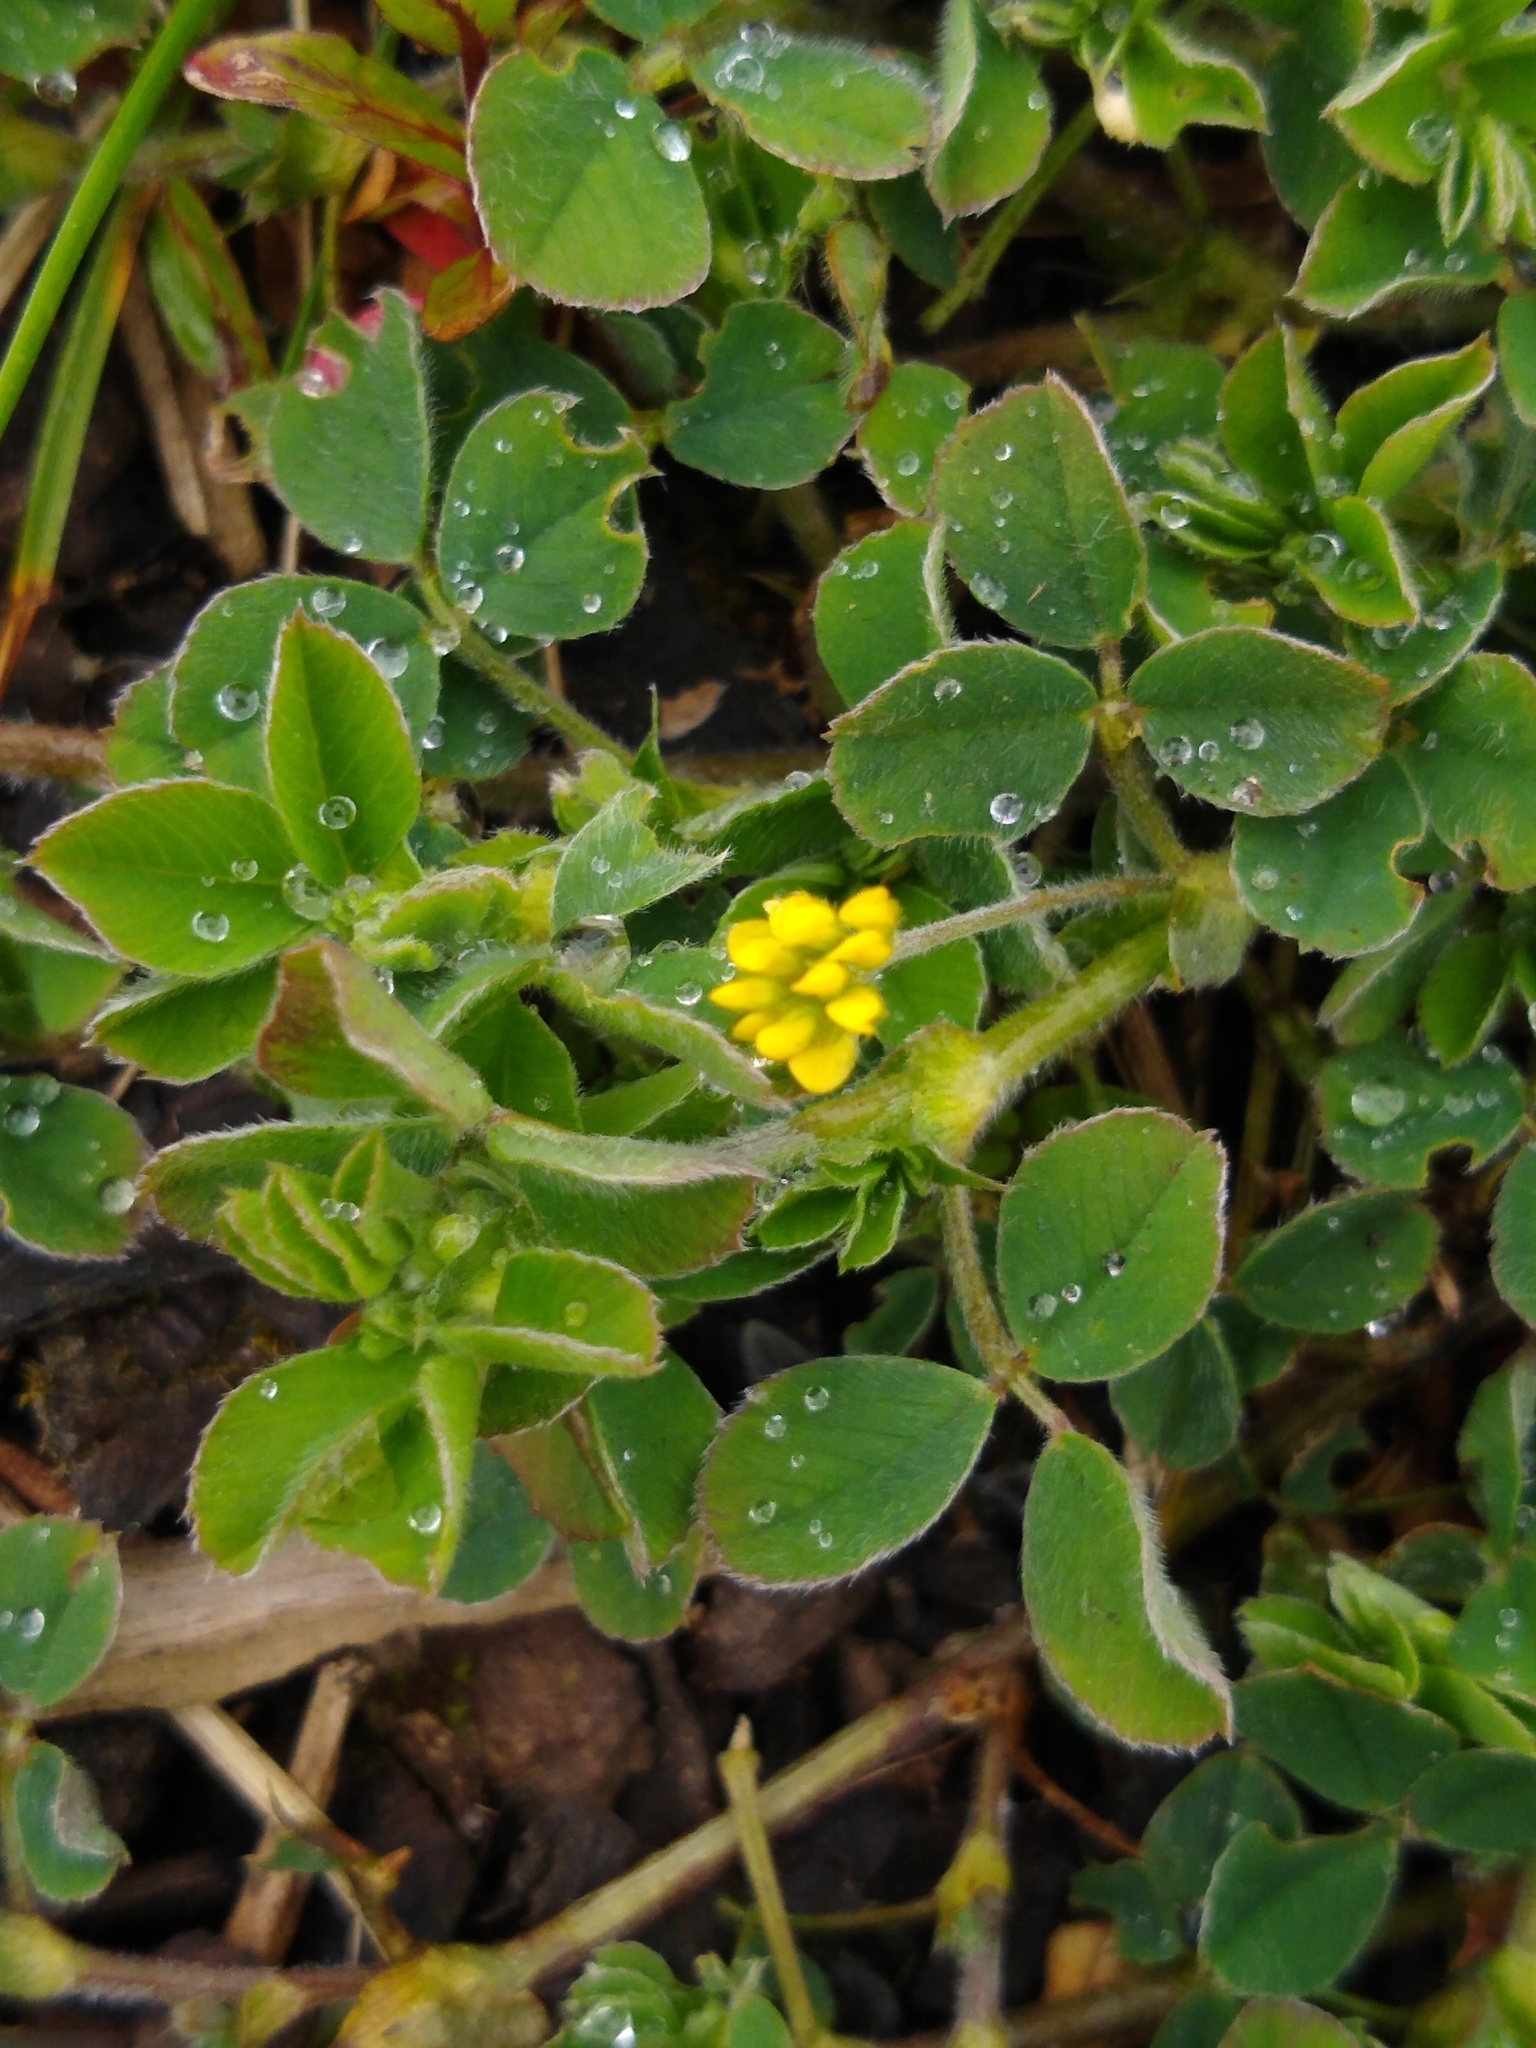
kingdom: Plantae
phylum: Tracheophyta
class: Magnoliopsida
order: Fabales
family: Fabaceae
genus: Medicago
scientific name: Medicago lupulina
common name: Black medick
